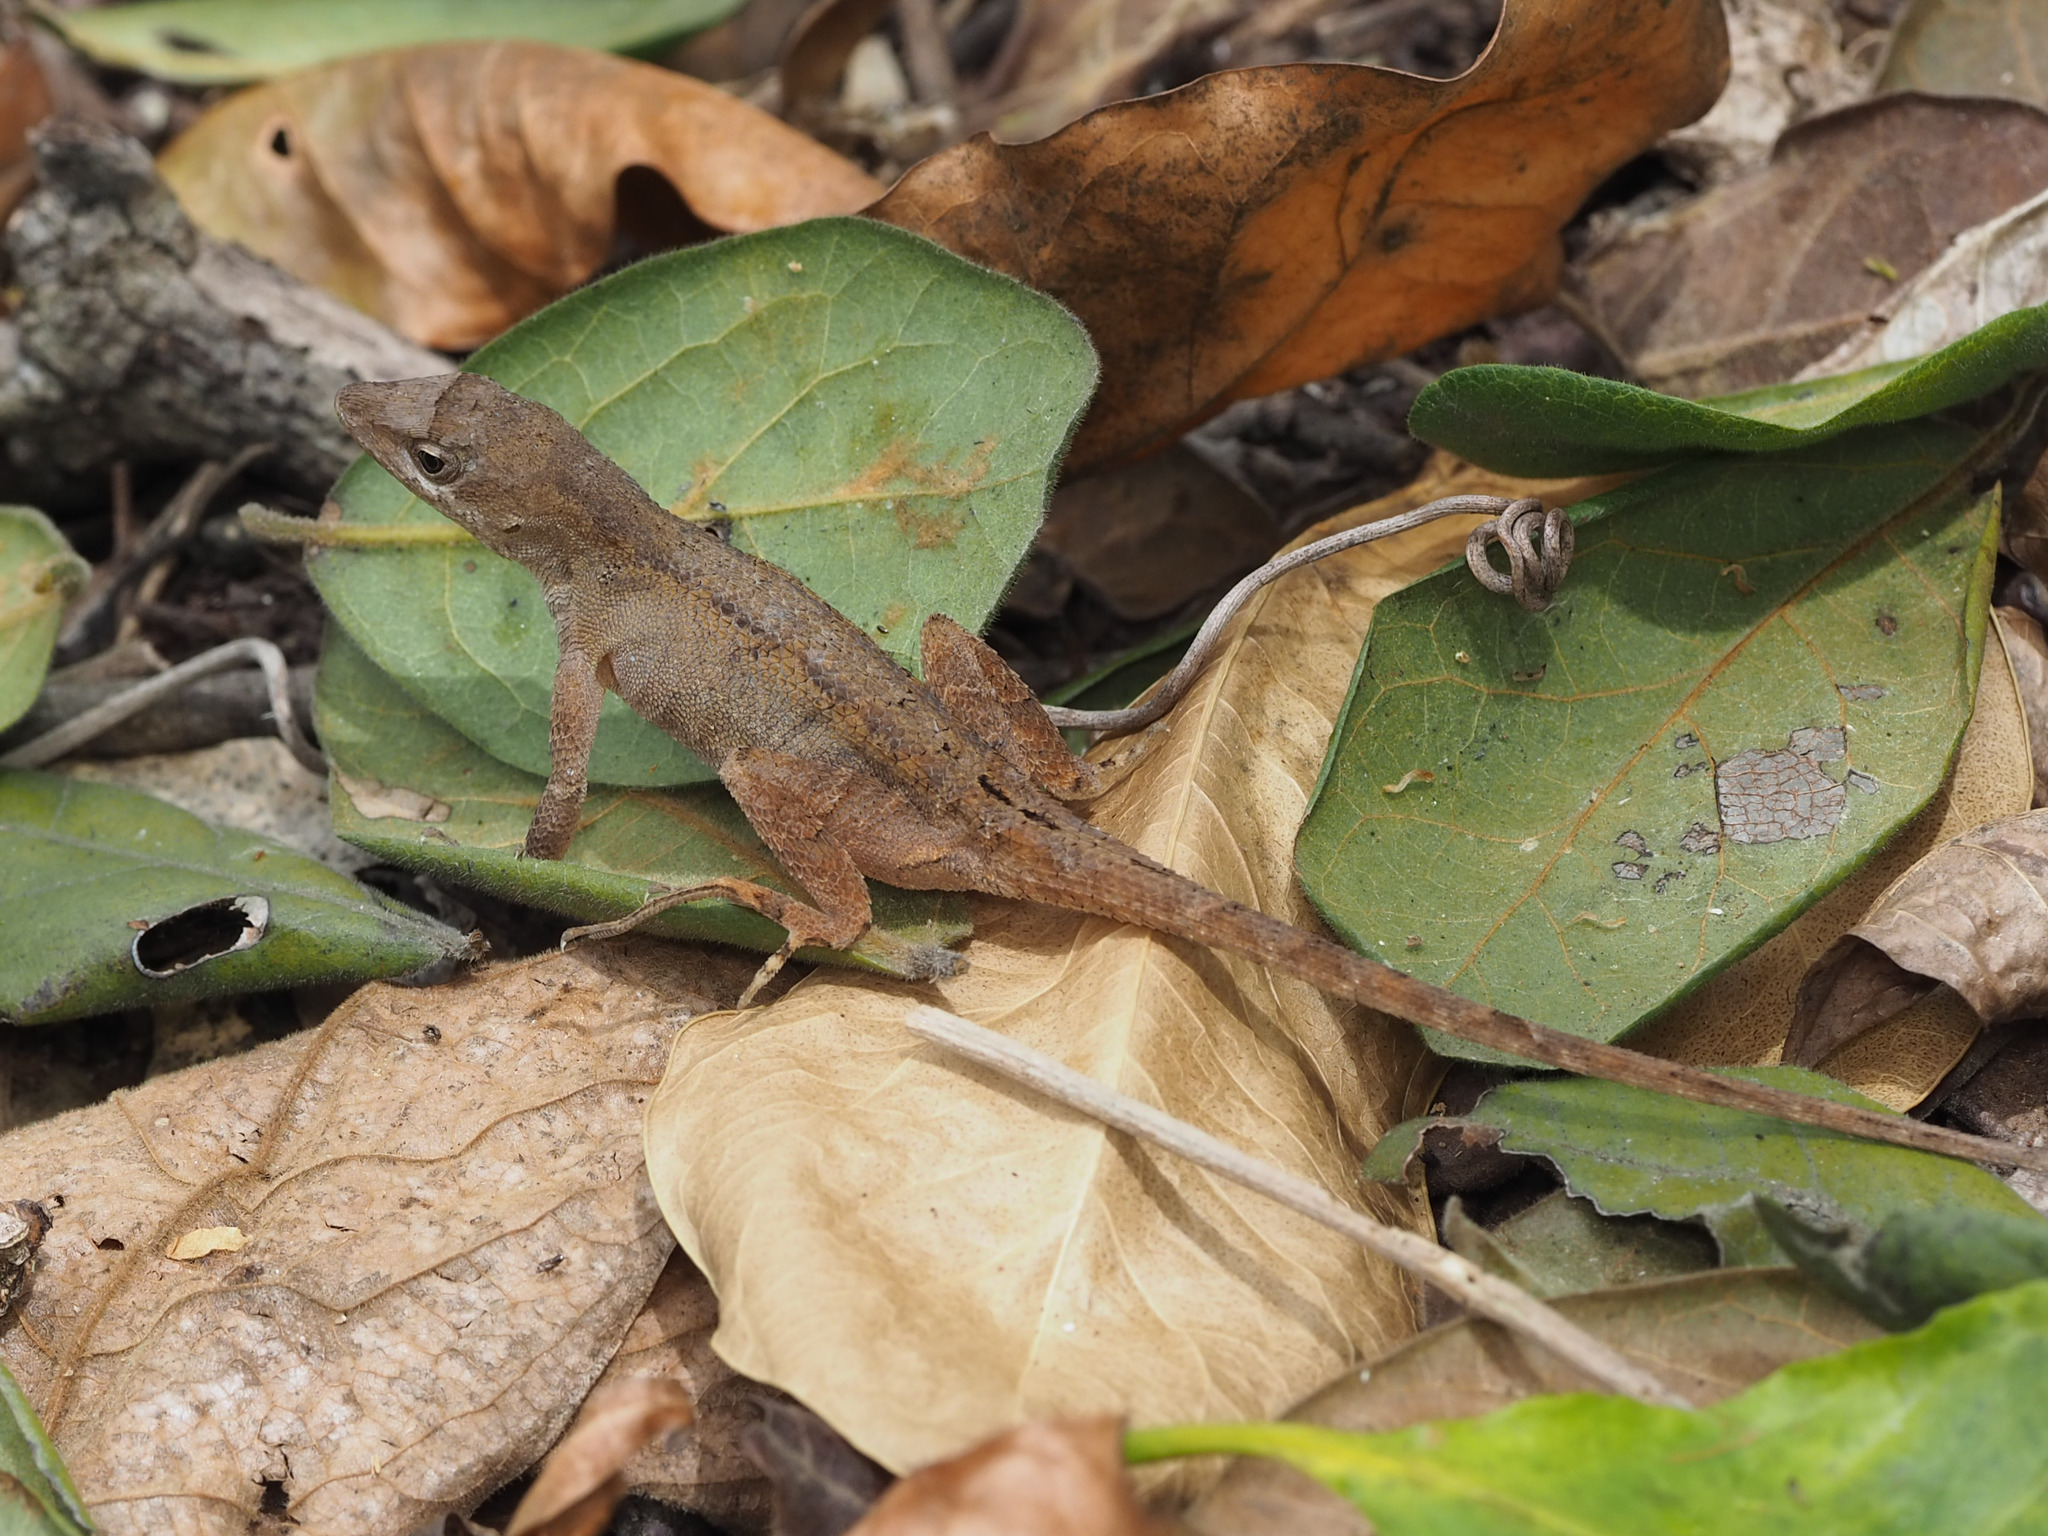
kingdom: Animalia
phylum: Chordata
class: Squamata
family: Dactyloidae
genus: Anolis
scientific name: Anolis tropidonotus
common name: Greater scaly anole
